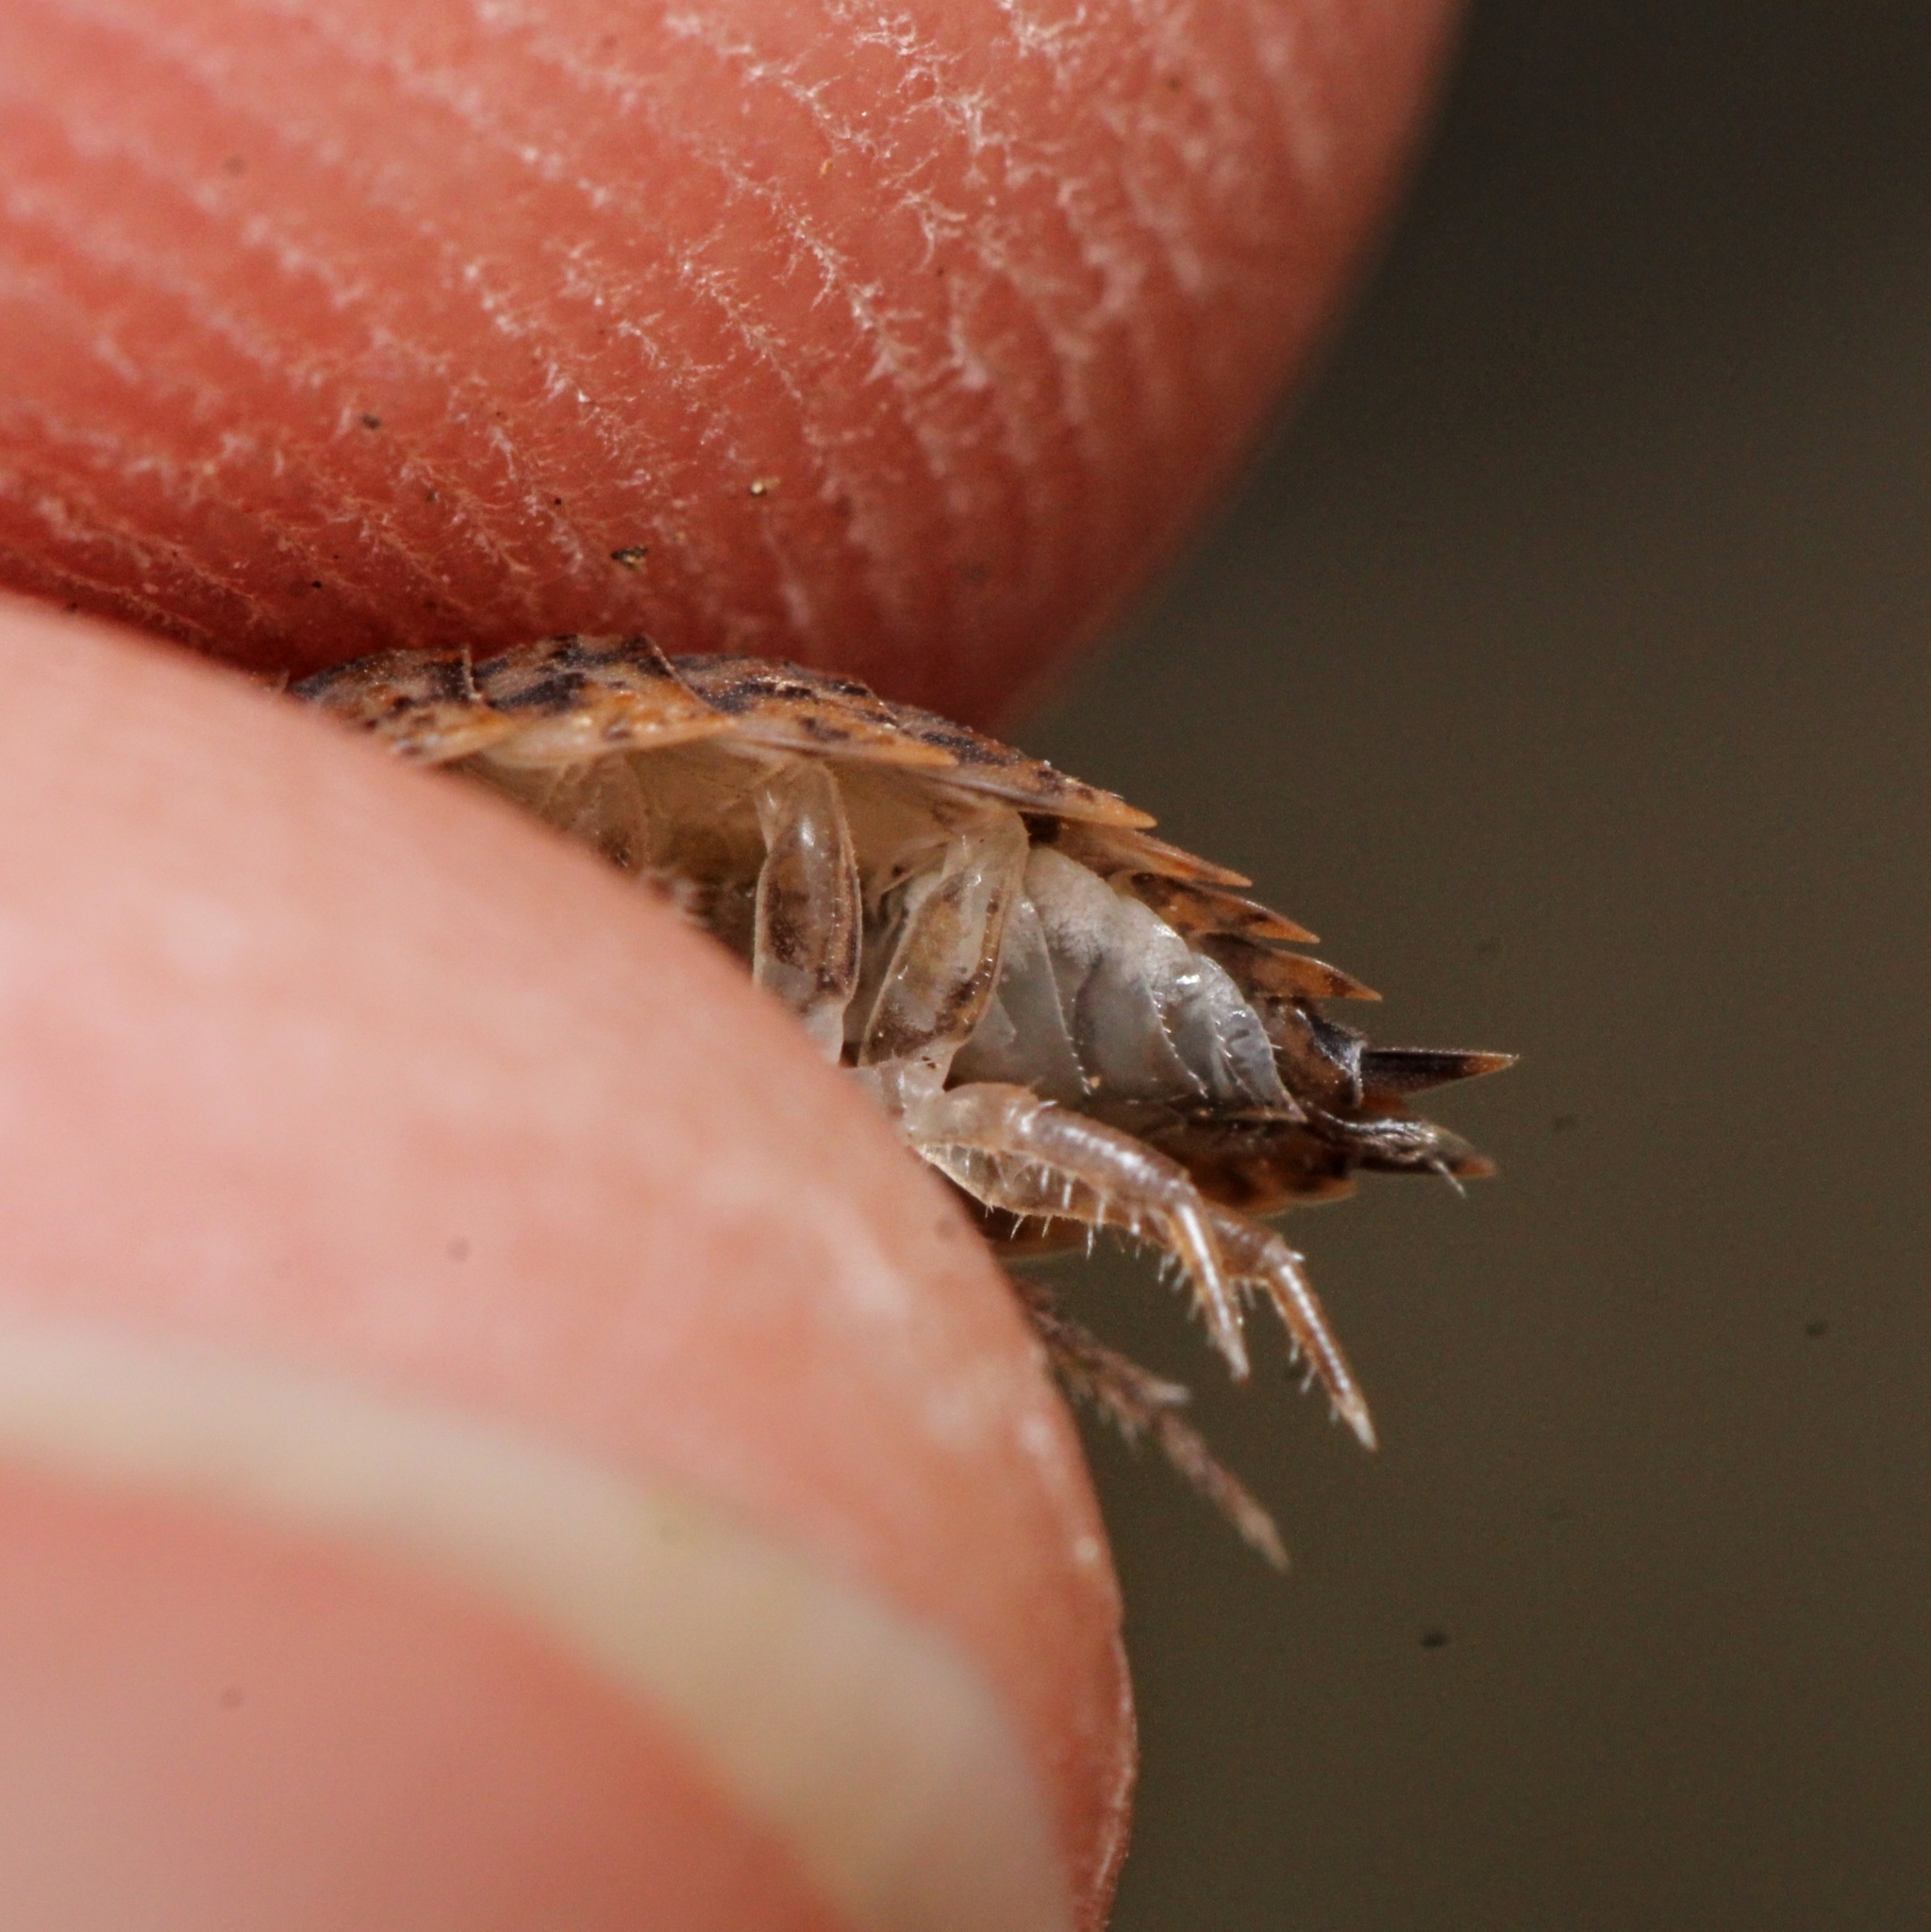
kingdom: Animalia
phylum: Arthropoda
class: Malacostraca
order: Isopoda
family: Trachelipodidae
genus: Trachelipus
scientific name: Trachelipus rathkii
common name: Isopod
